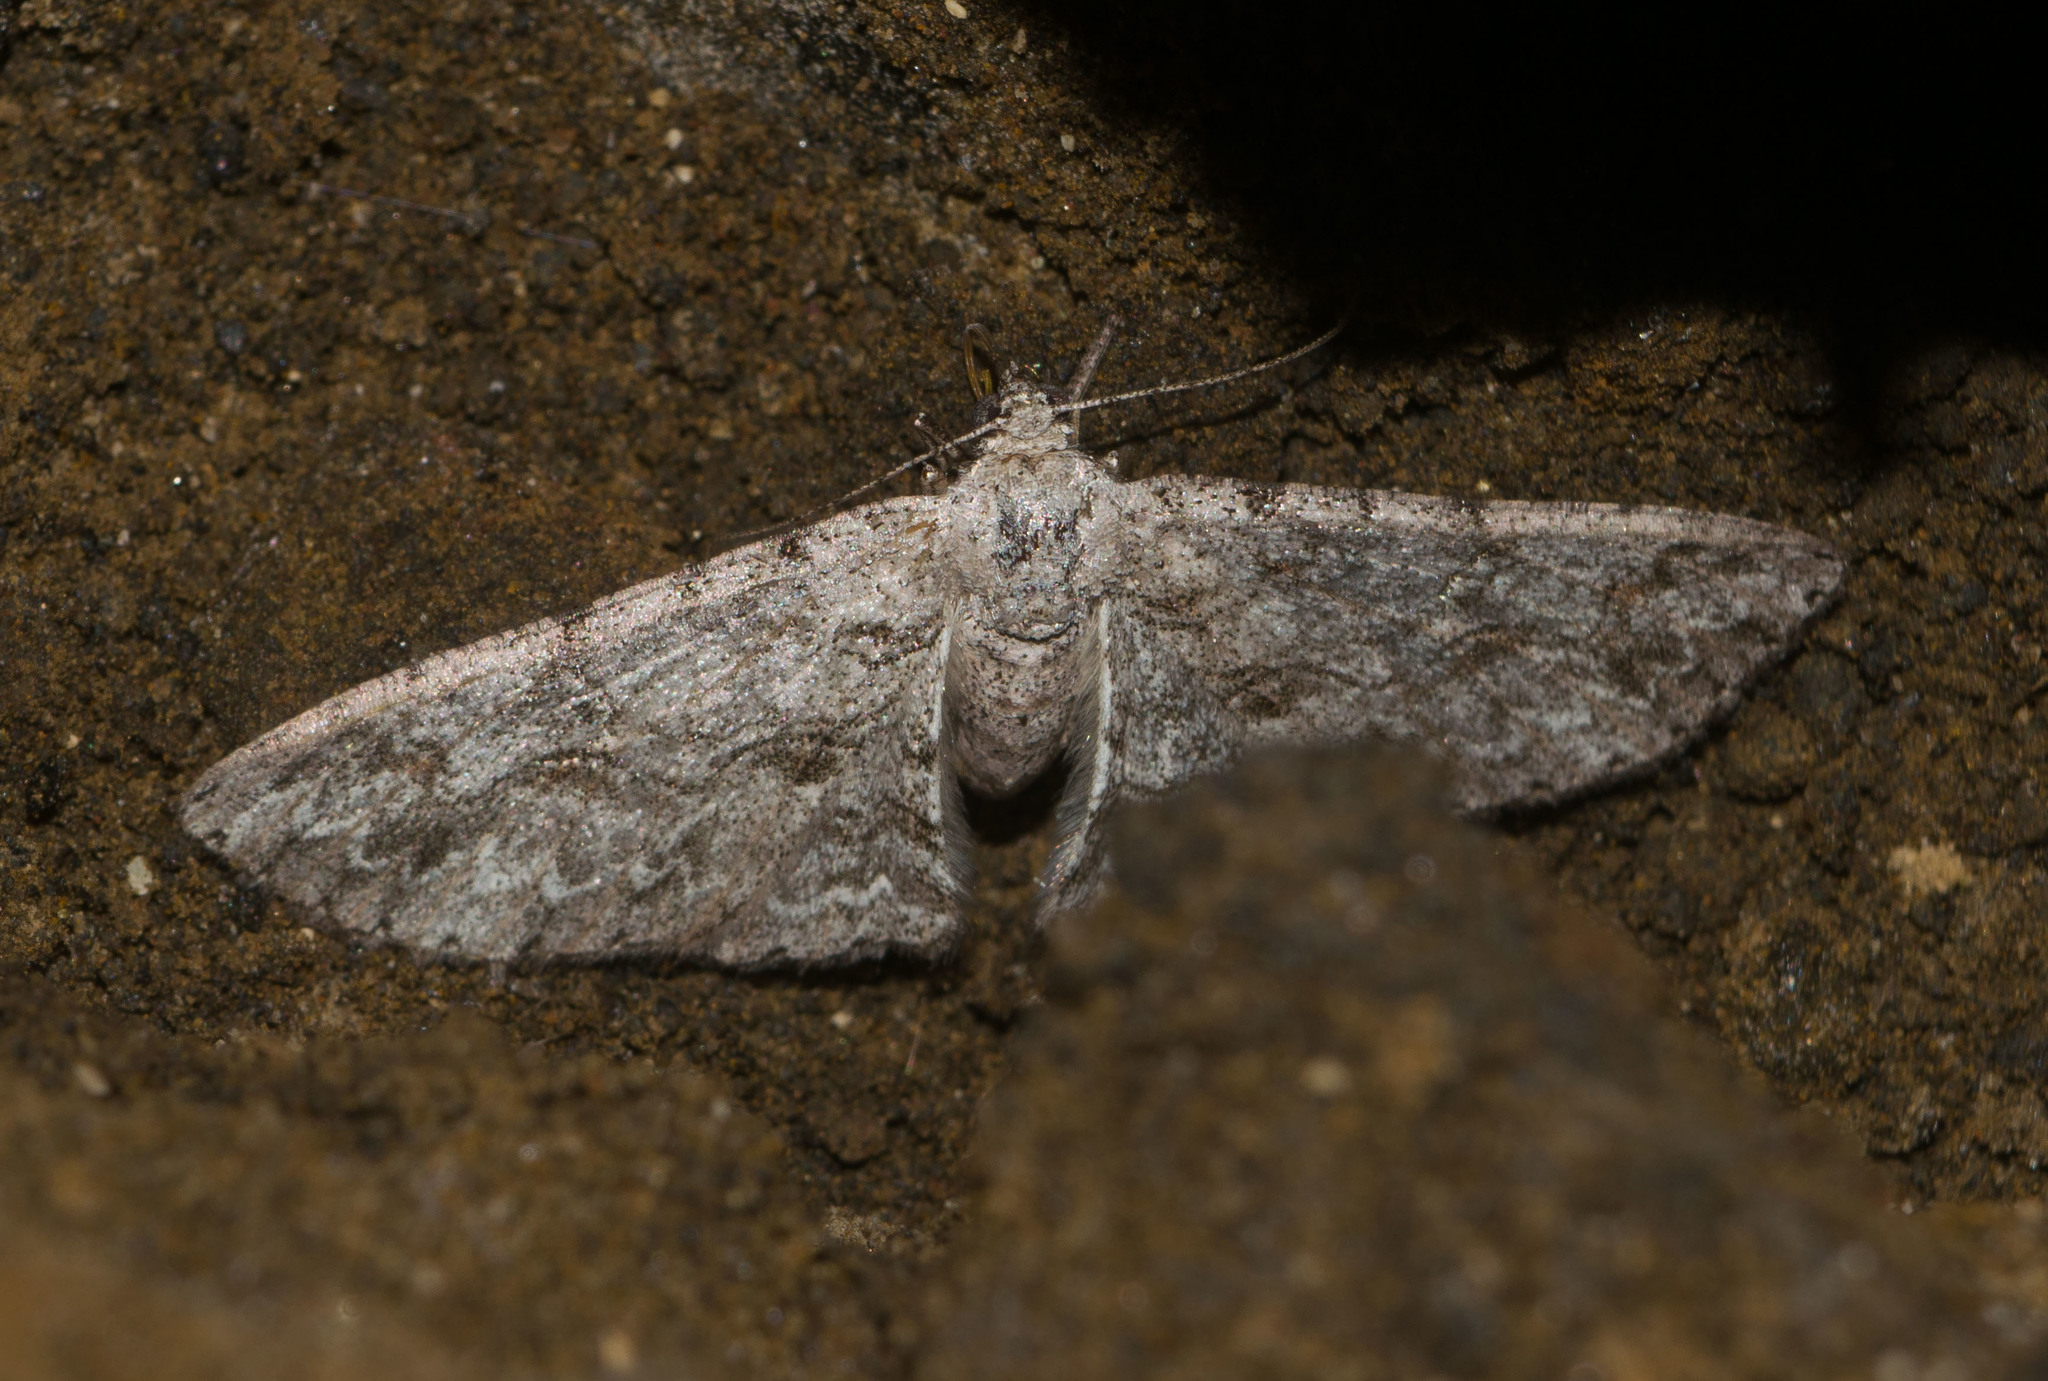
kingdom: Animalia
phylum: Arthropoda
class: Insecta
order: Lepidoptera
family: Geometridae
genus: Iridopsis
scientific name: Iridopsis fragilaria
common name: Moth
